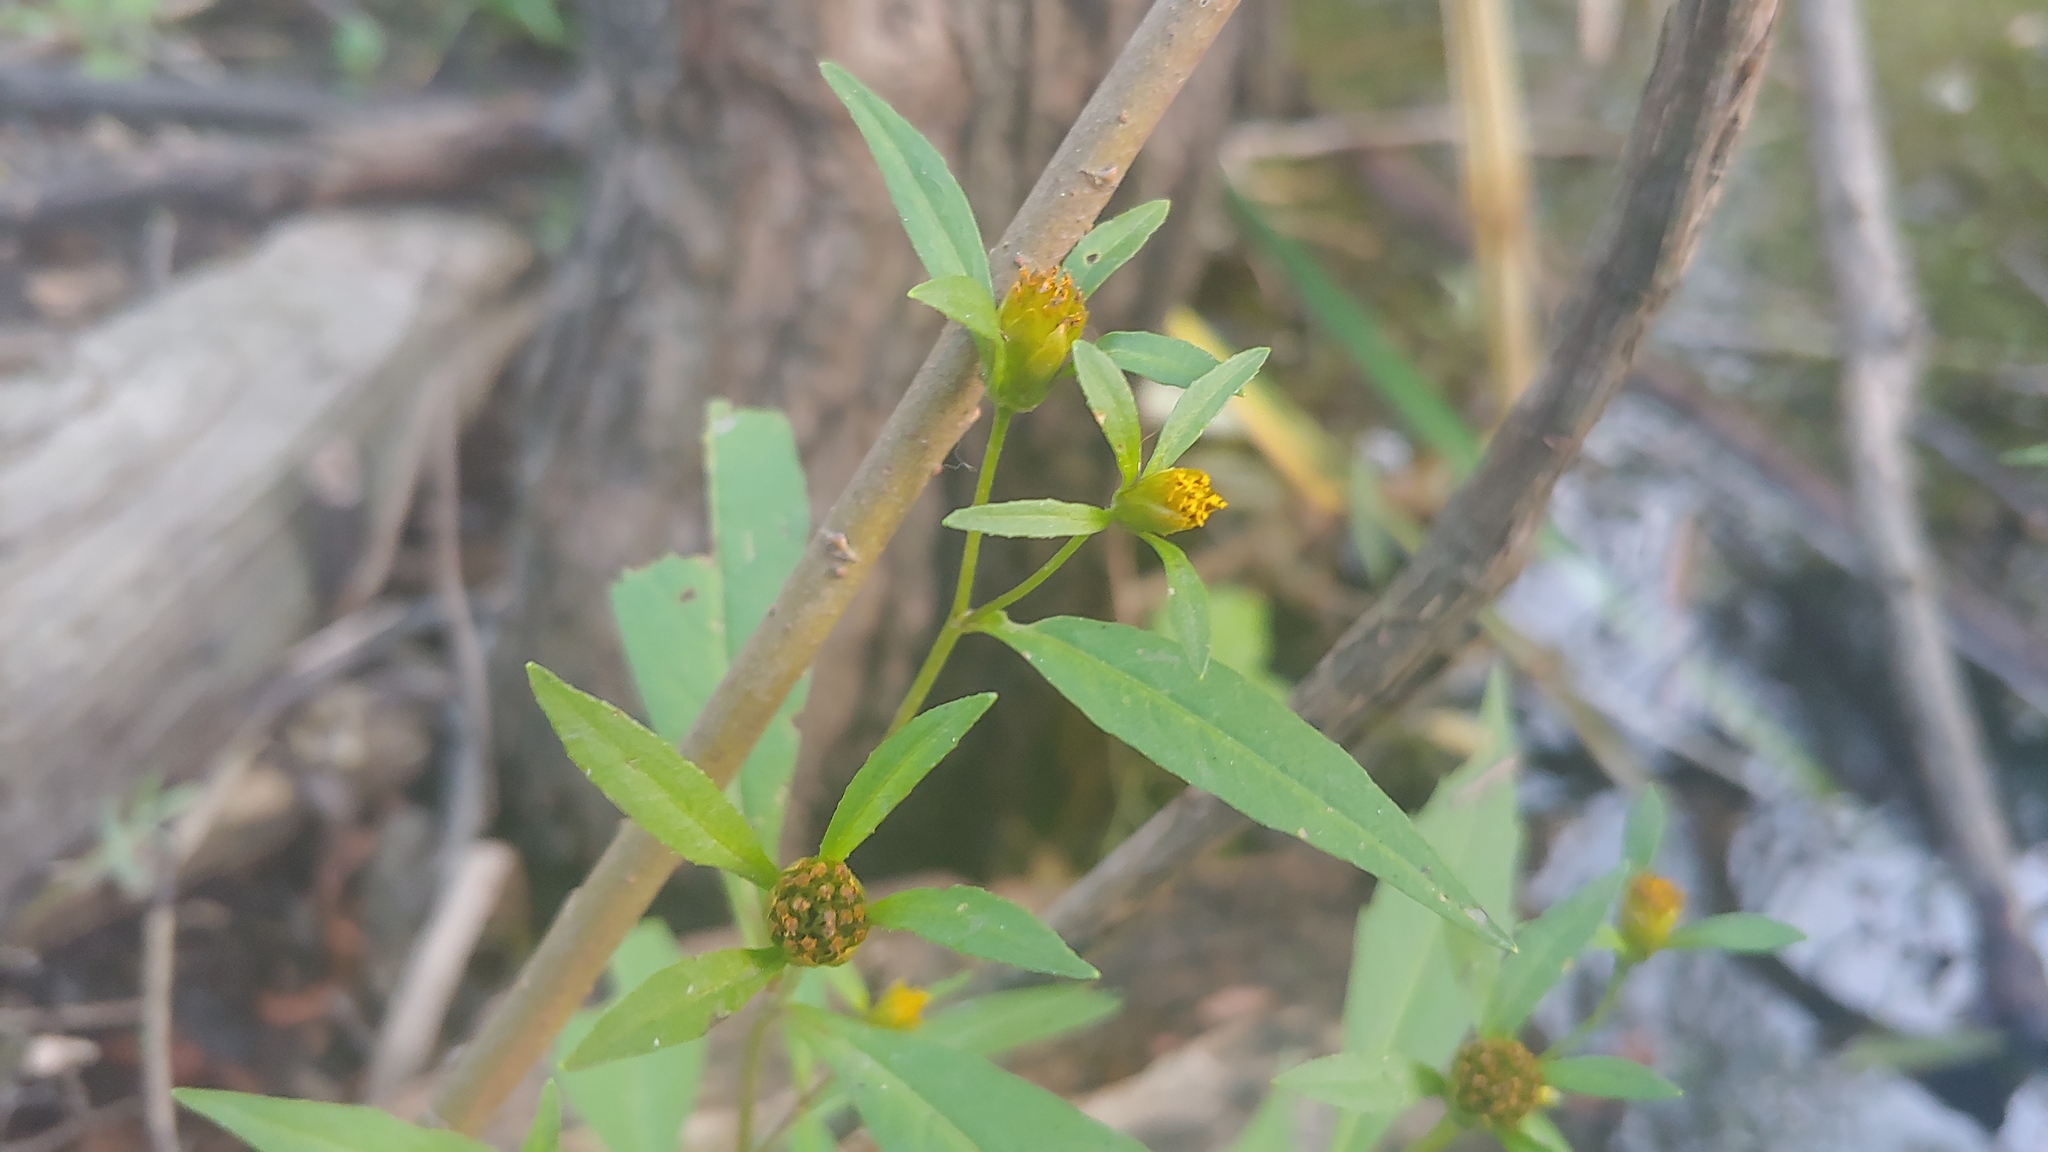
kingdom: Plantae
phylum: Tracheophyta
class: Magnoliopsida
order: Asterales
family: Asteraceae
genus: Bidens
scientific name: Bidens connata
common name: London bur-marigold
